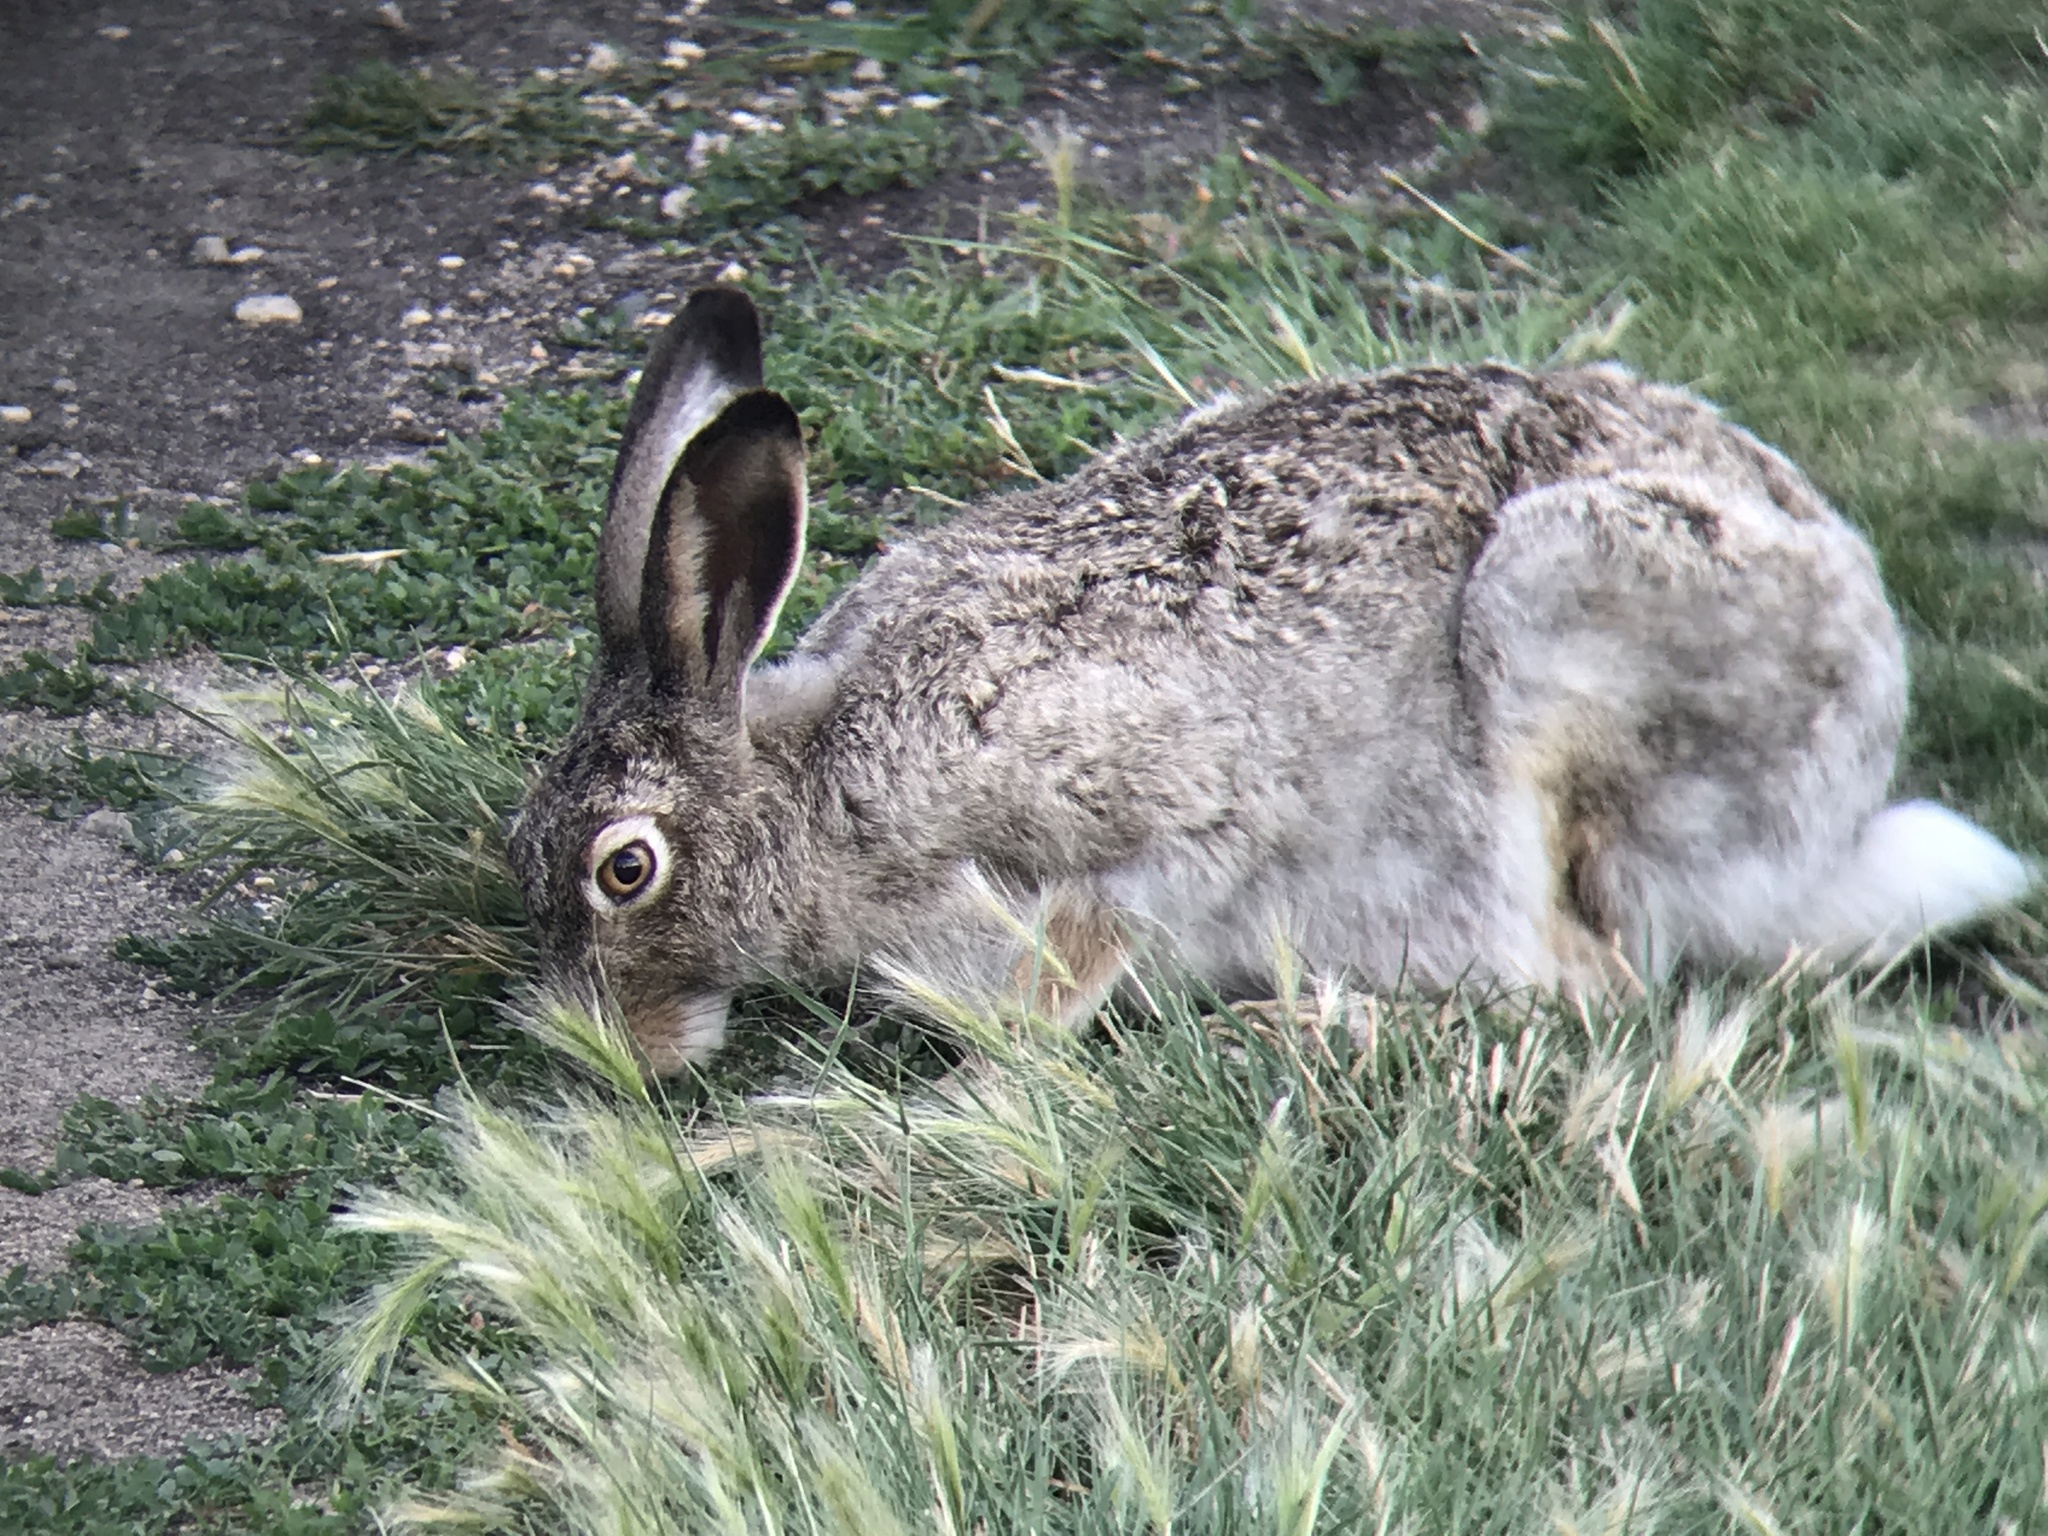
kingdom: Animalia
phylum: Chordata
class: Mammalia
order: Lagomorpha
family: Leporidae
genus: Lepus
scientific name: Lepus townsendii
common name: White-tailed jackrabbit
